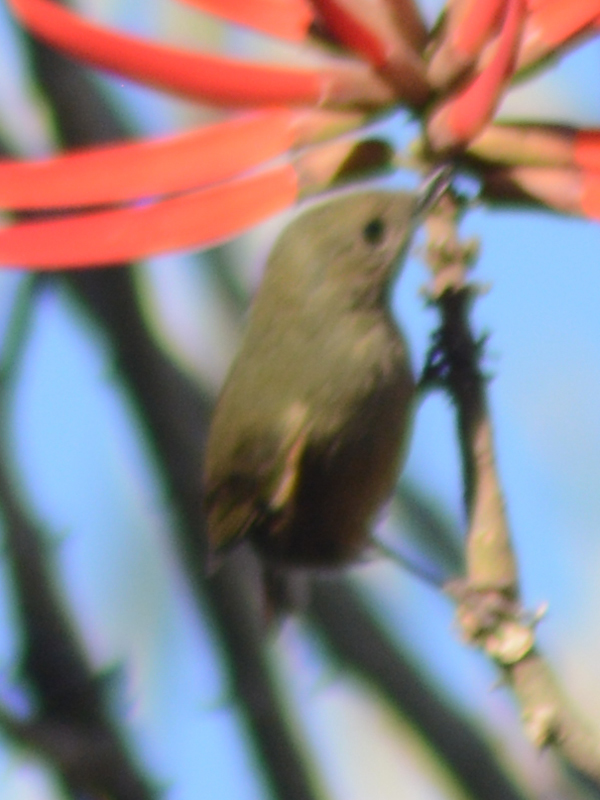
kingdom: Animalia
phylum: Chordata
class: Aves
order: Passeriformes
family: Thraupidae
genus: Diglossa
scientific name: Diglossa baritula
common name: Cinnamon-bellied flowerpiercer
